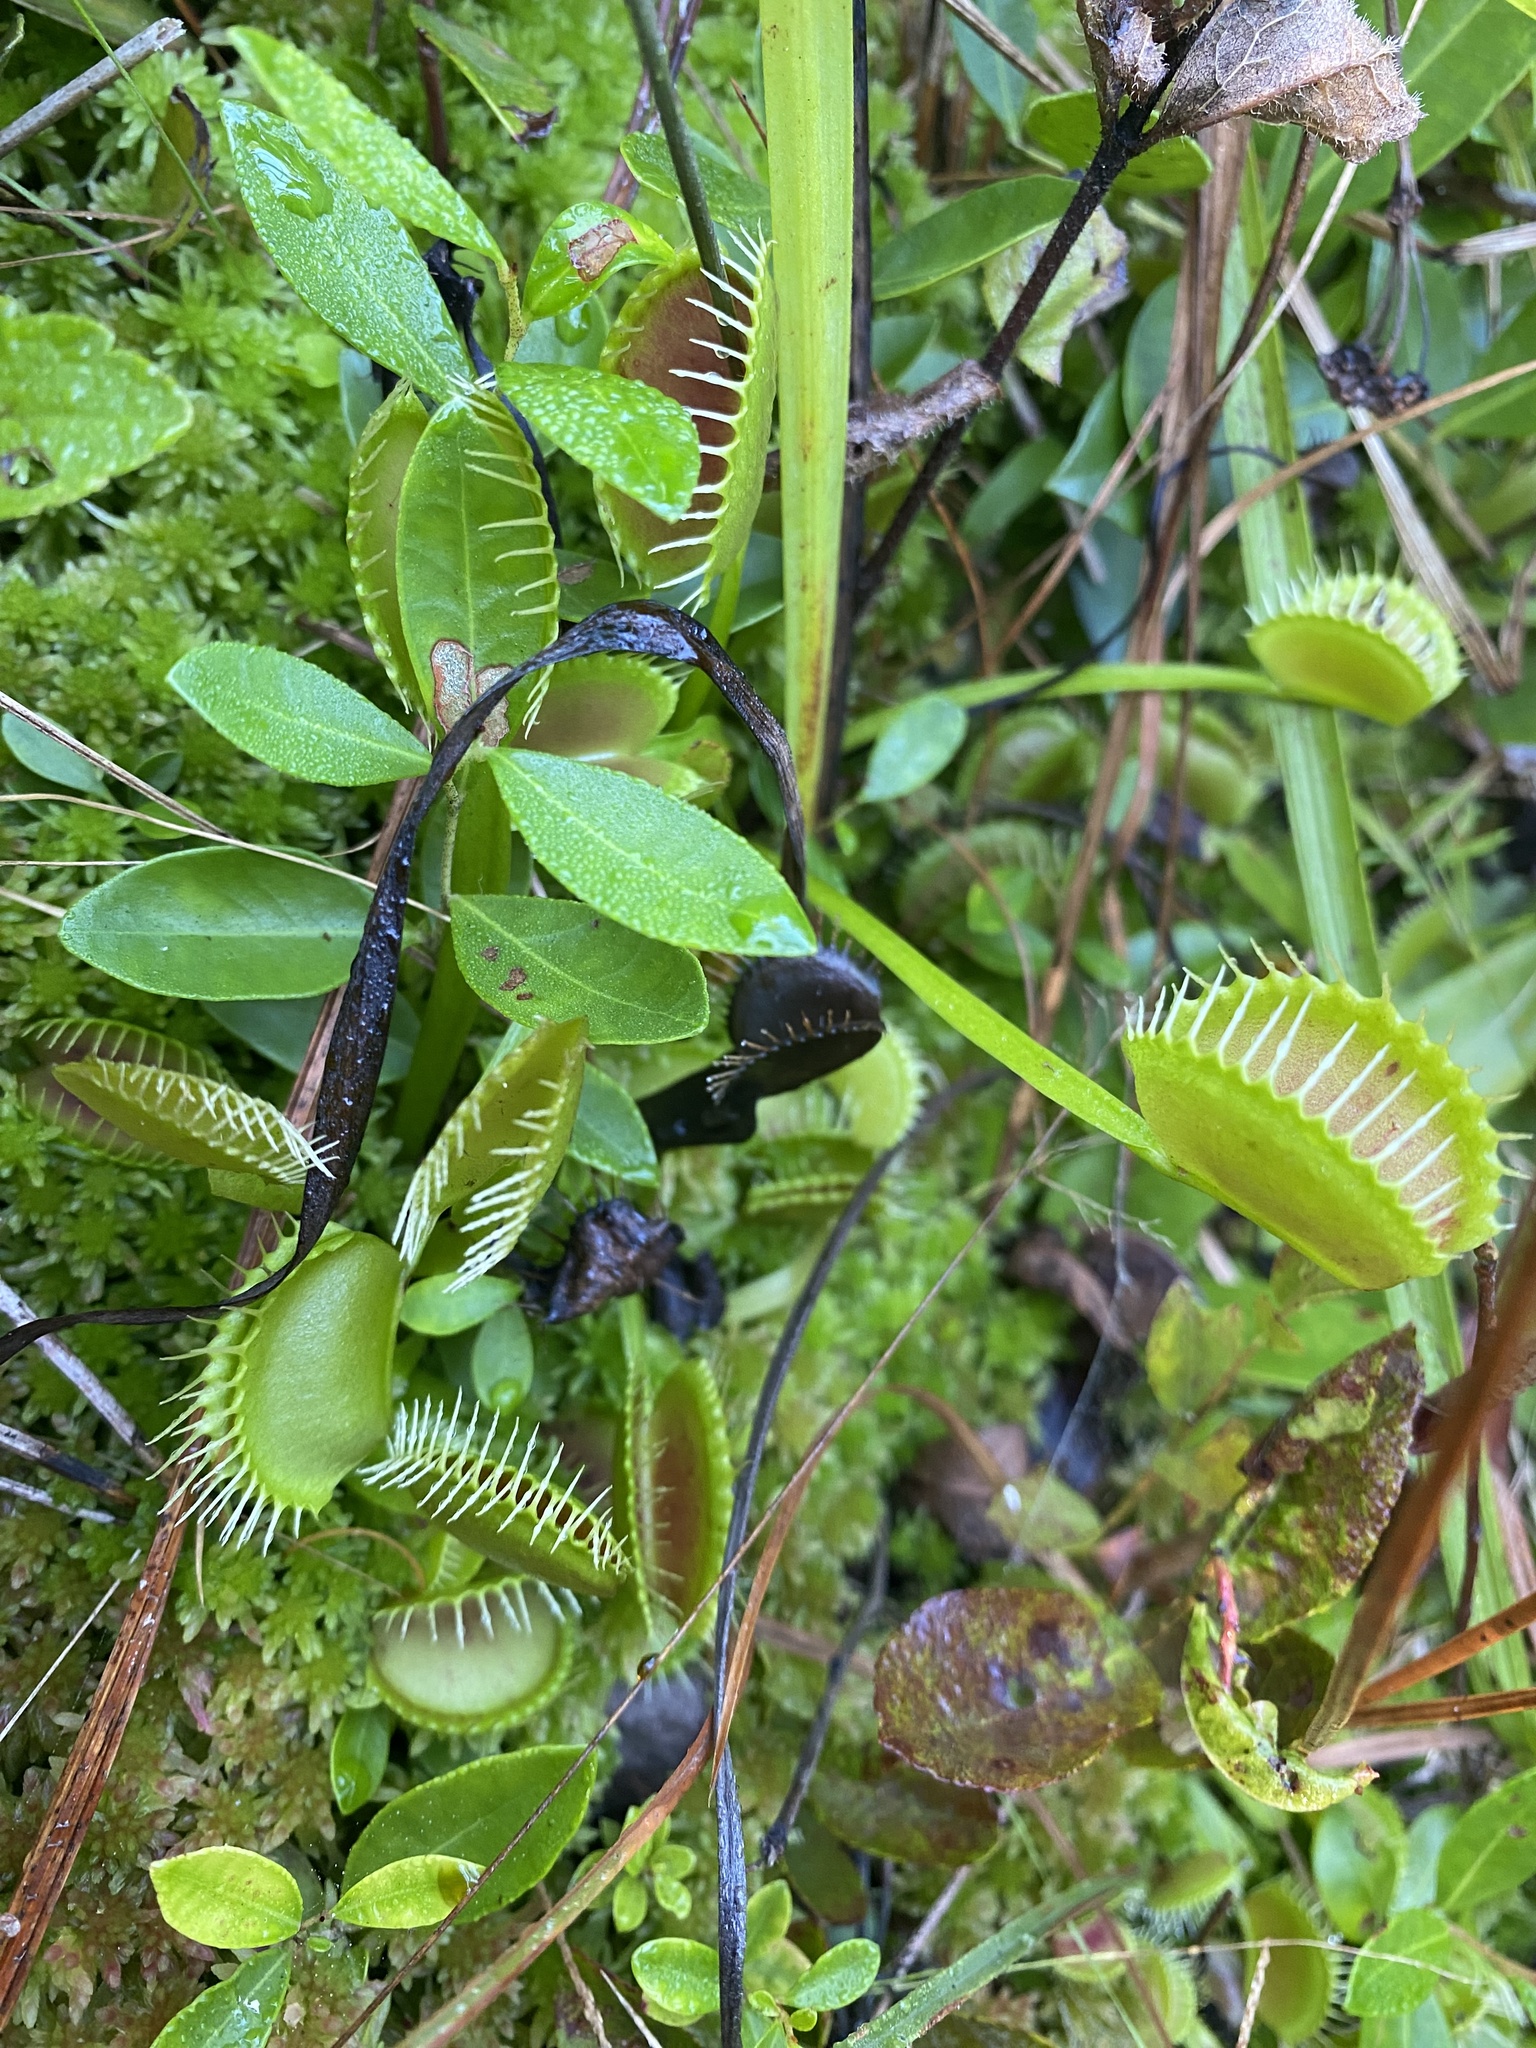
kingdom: Plantae
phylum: Tracheophyta
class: Magnoliopsida
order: Caryophyllales
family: Droseraceae
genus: Dionaea
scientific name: Dionaea muscipula
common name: Venus flytrap
